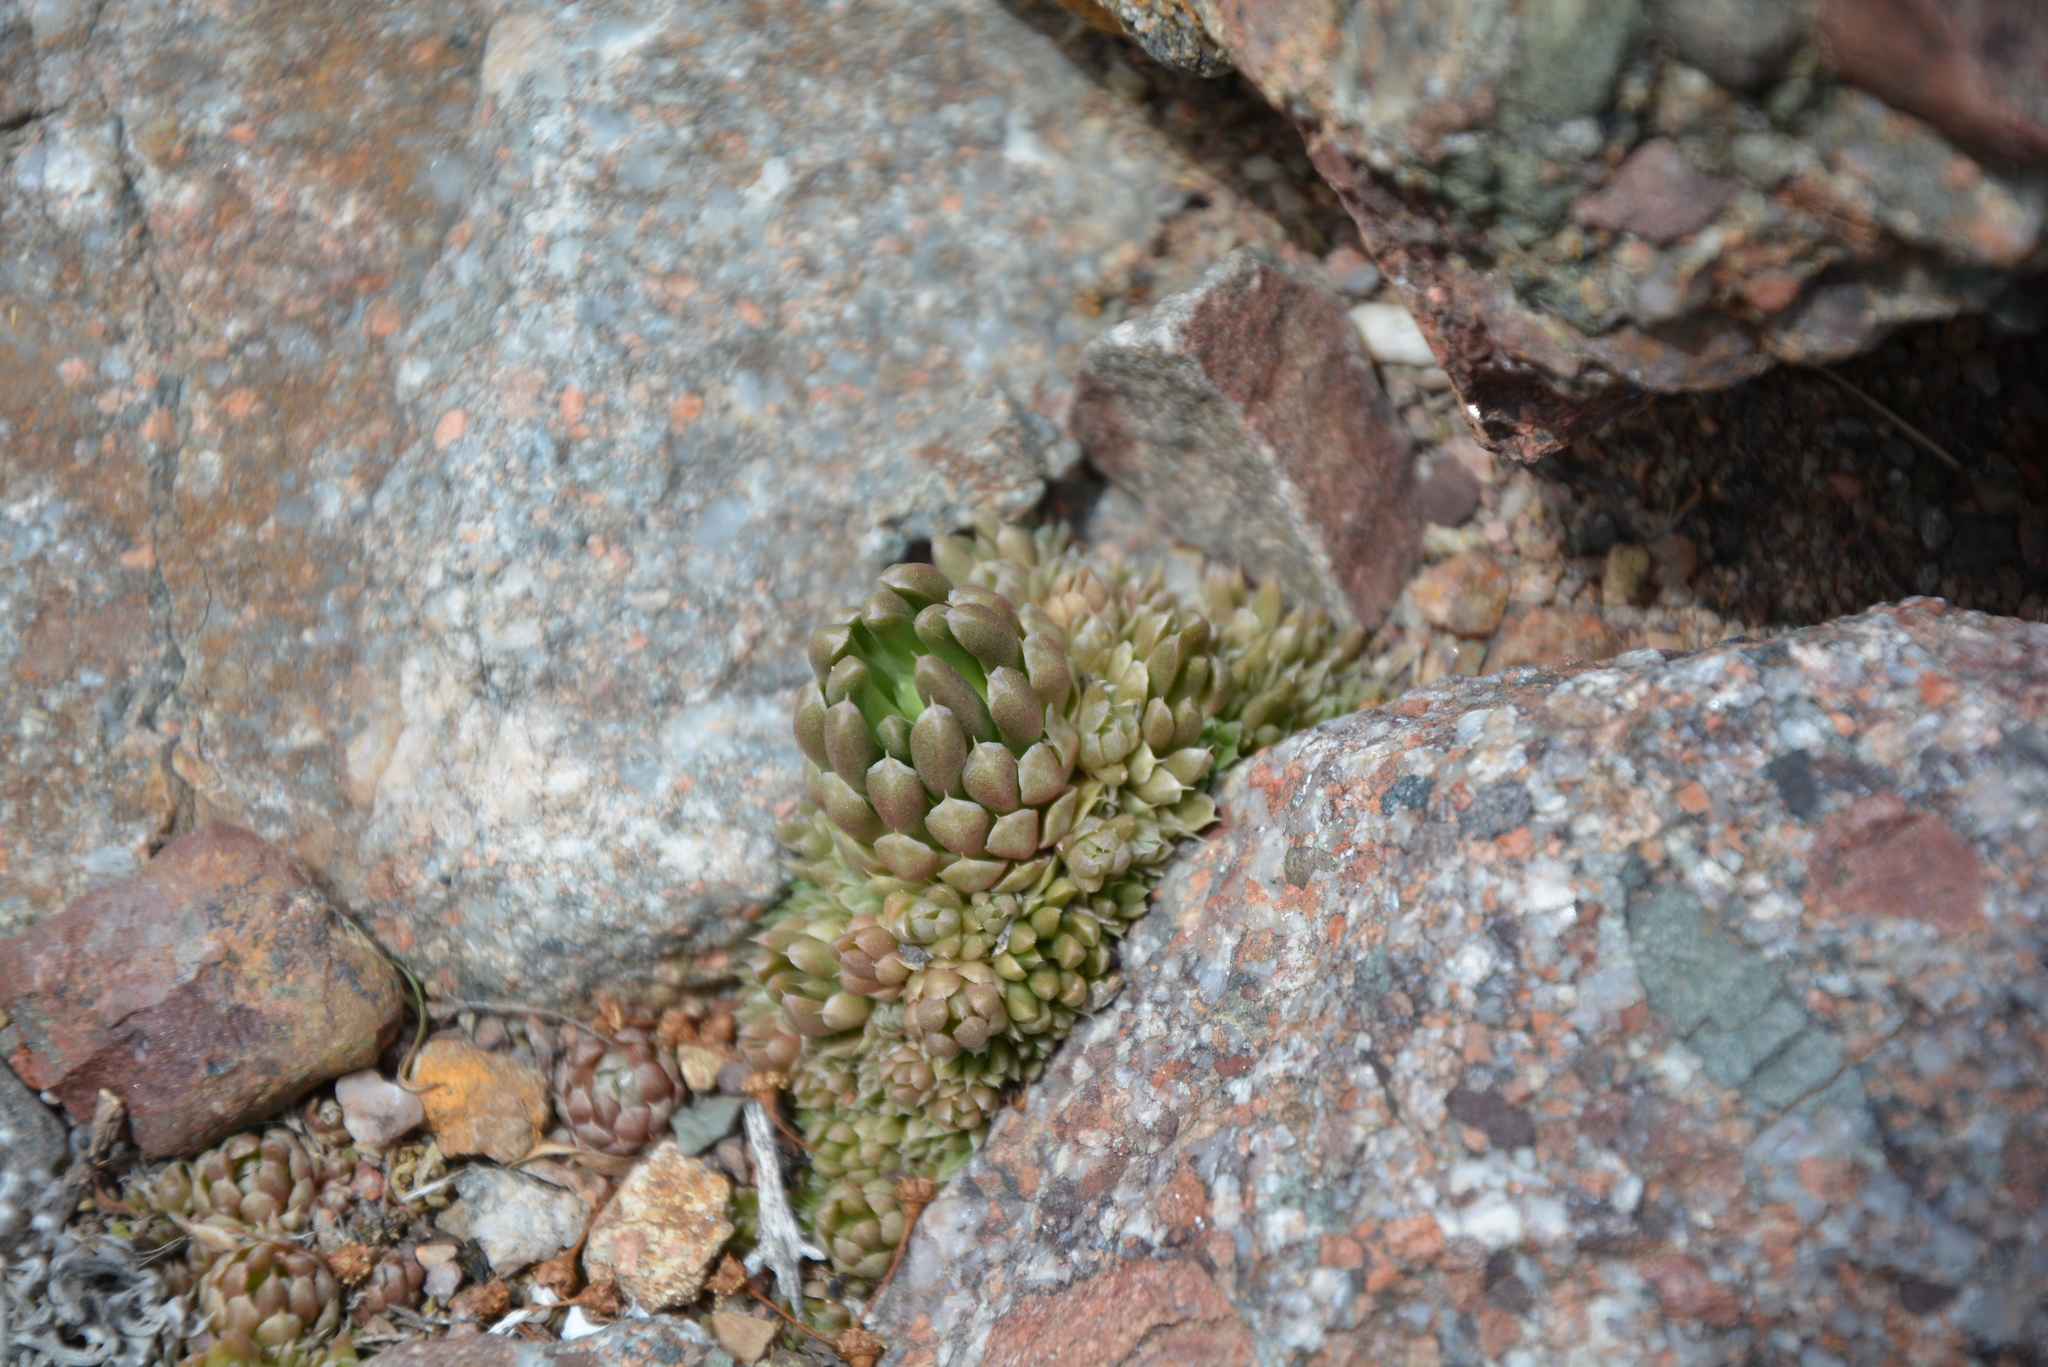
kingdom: Plantae
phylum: Tracheophyta
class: Magnoliopsida
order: Saxifragales
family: Crassulaceae
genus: Orostachys
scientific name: Orostachys thyrsiflora
